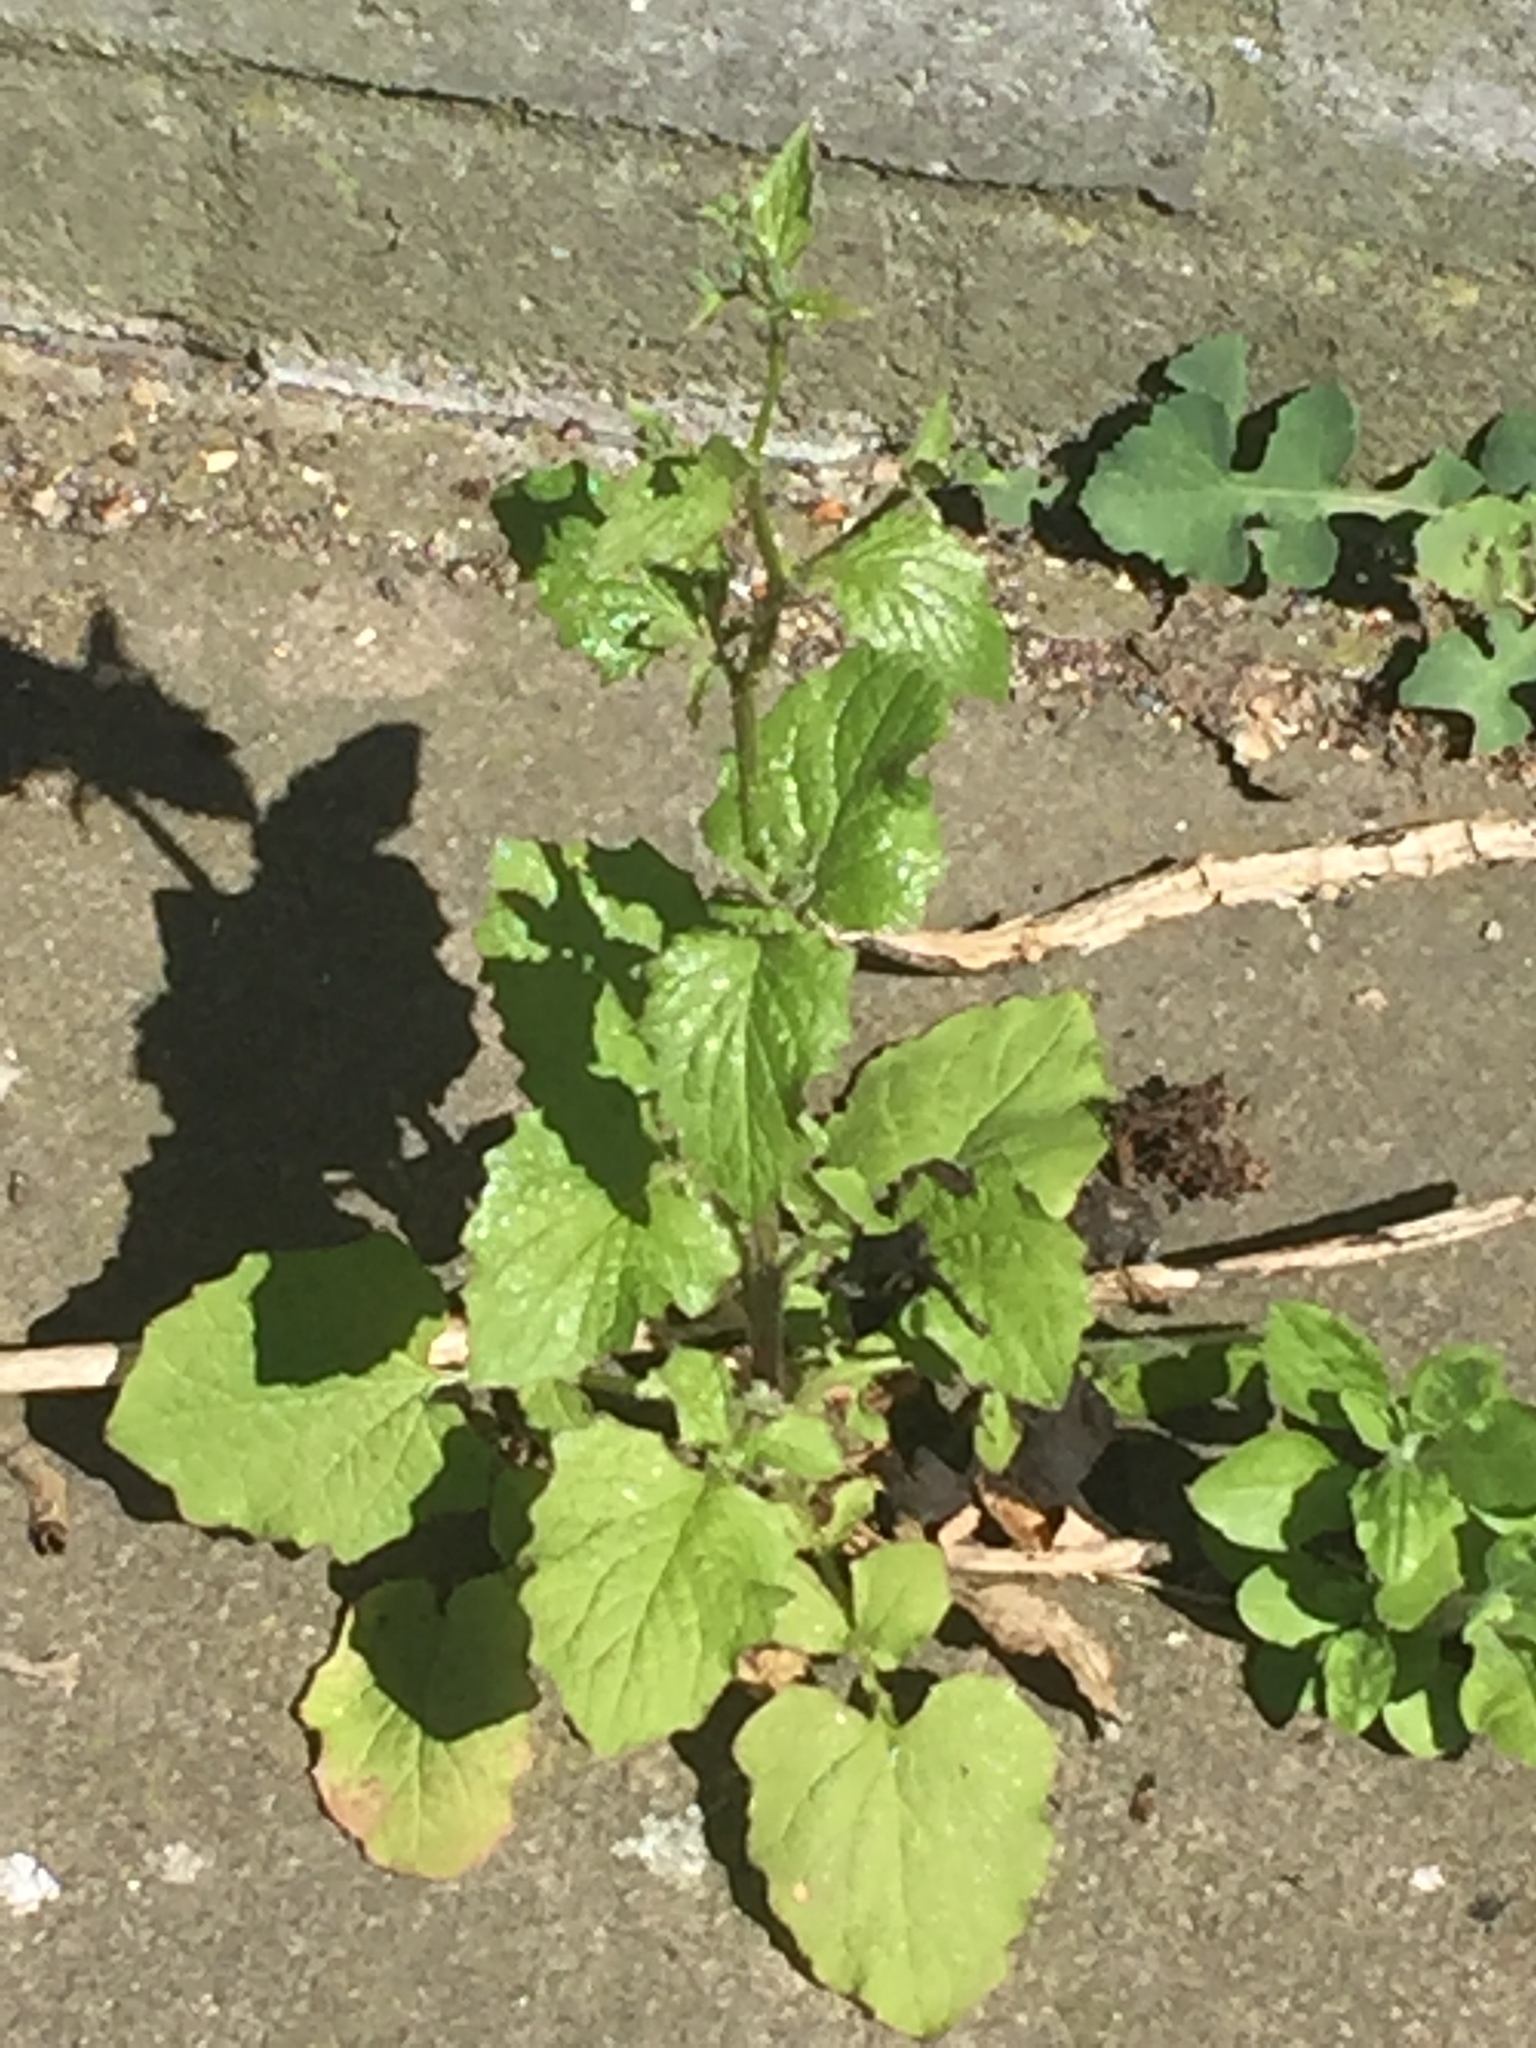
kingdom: Plantae
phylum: Tracheophyta
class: Magnoliopsida
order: Asterales
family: Asteraceae
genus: Lapsana
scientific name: Lapsana communis
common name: Nipplewort
